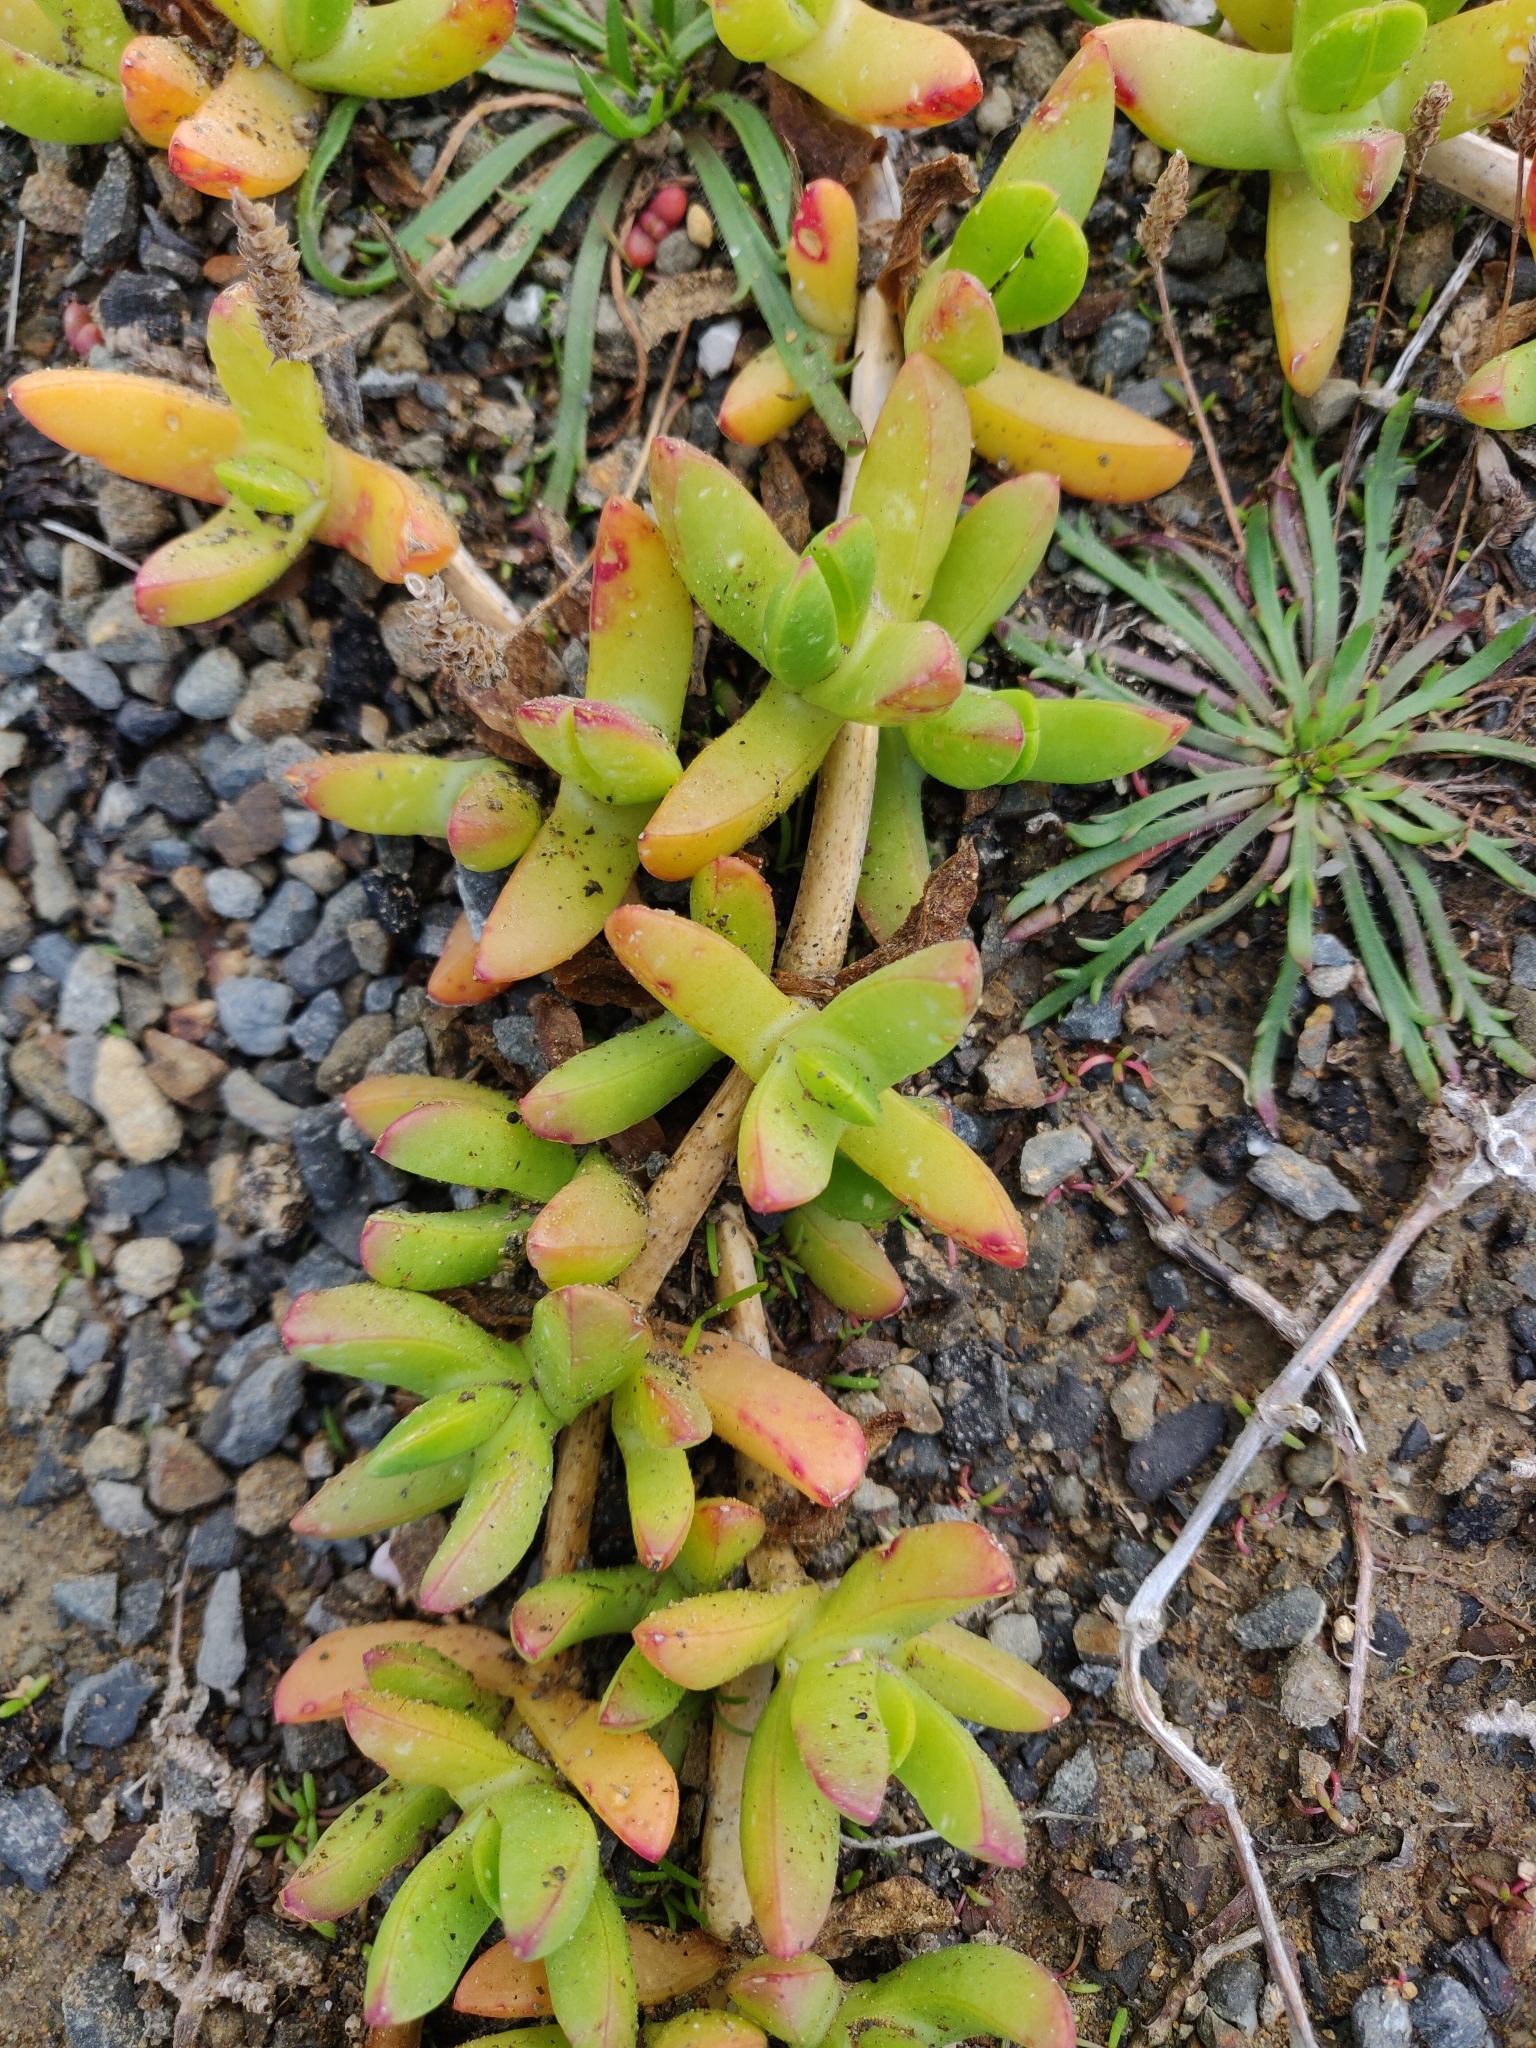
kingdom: Plantae
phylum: Tracheophyta
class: Magnoliopsida
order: Caryophyllales
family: Aizoaceae
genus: Disphyma
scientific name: Disphyma australe
